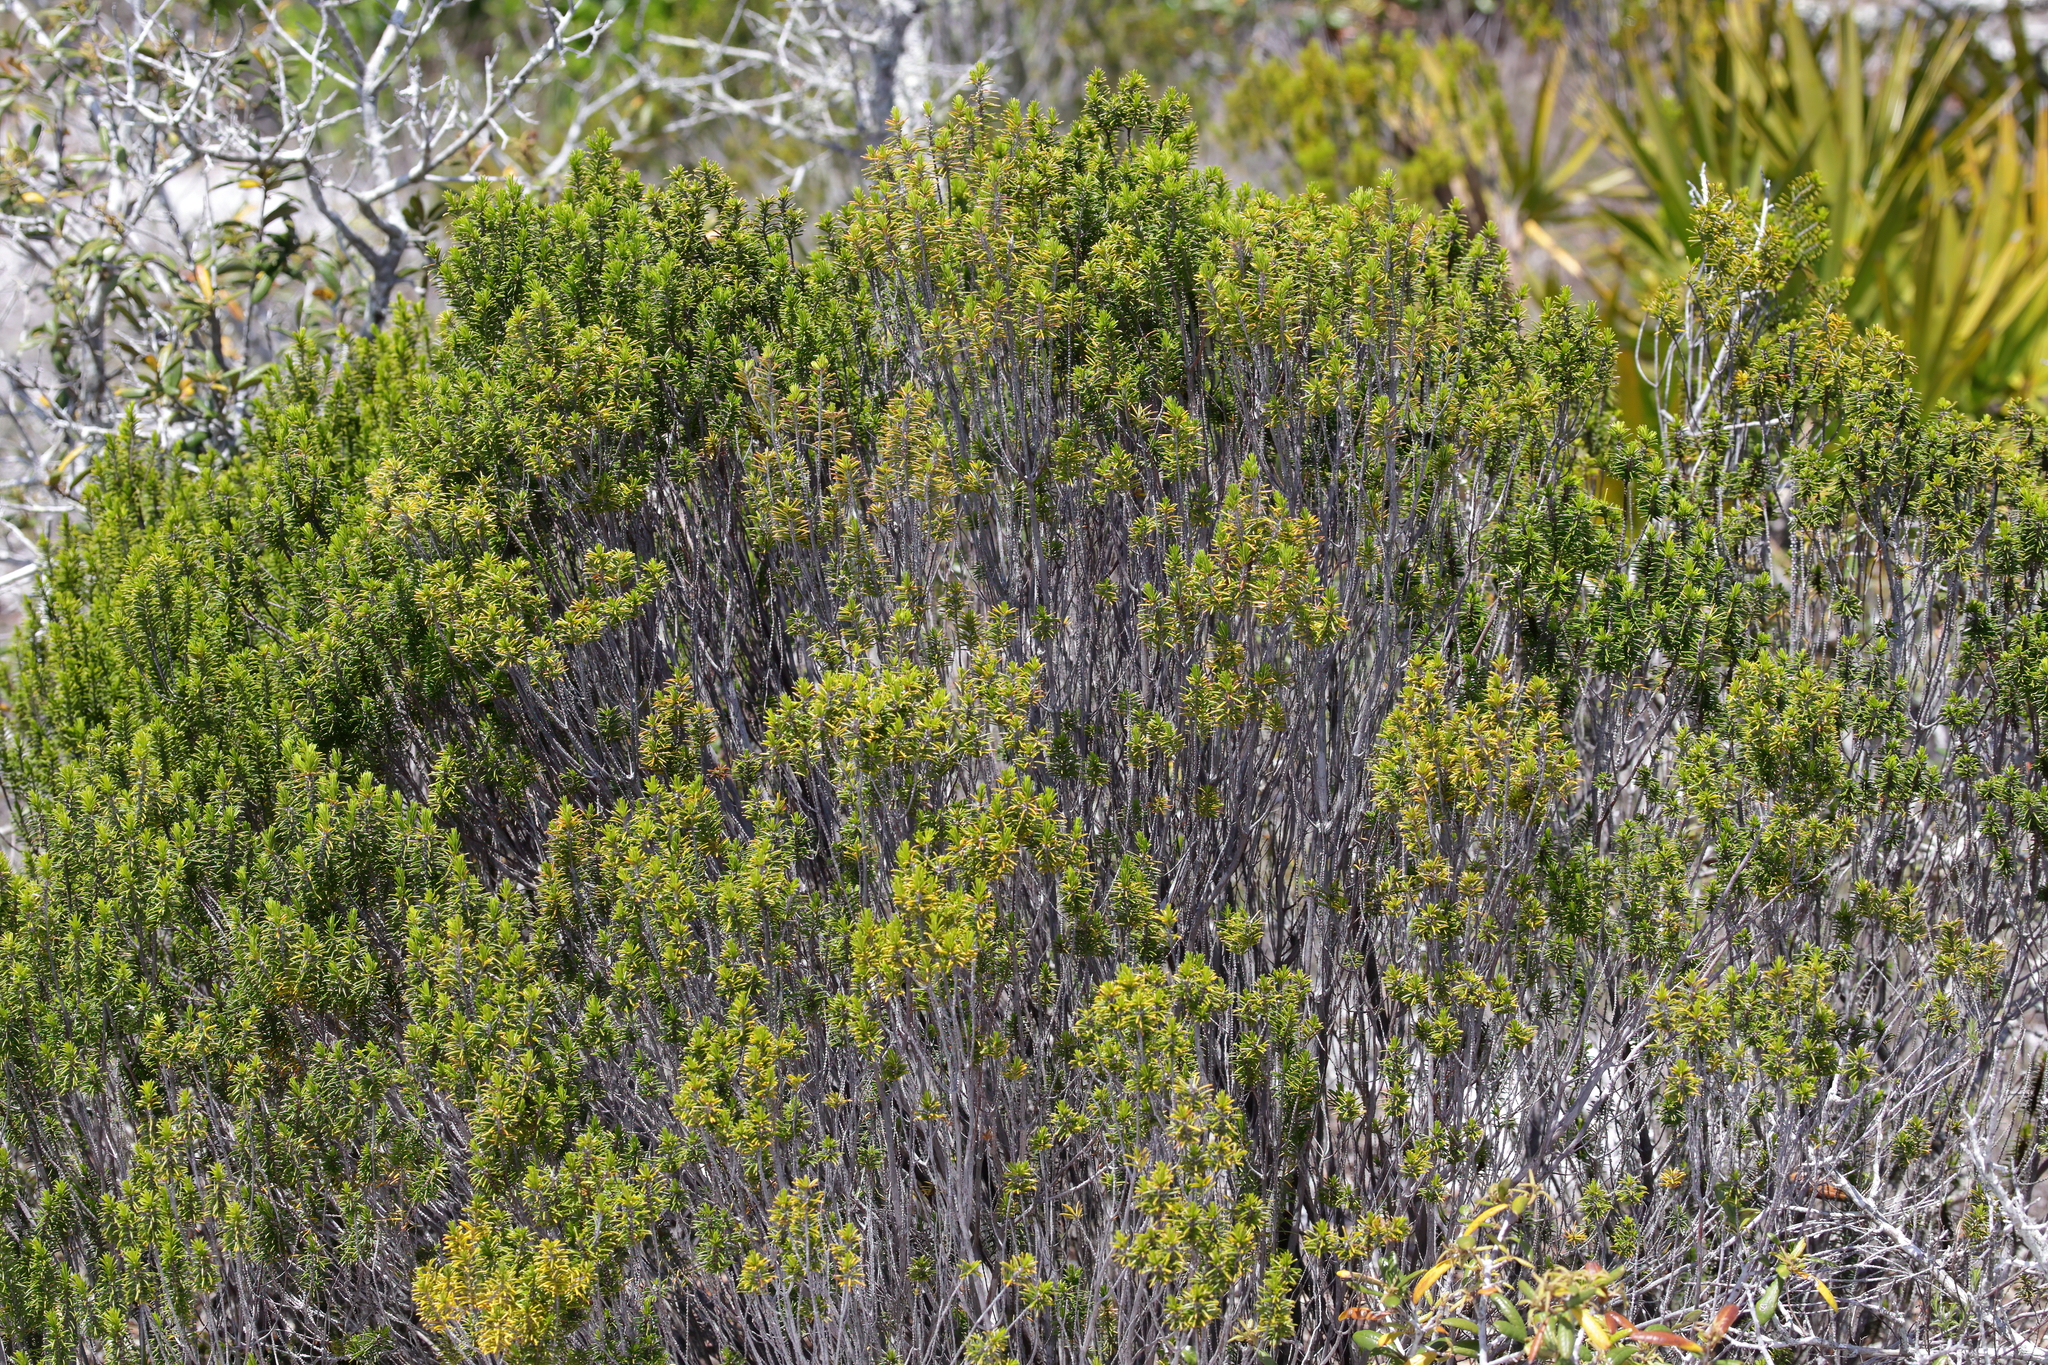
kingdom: Plantae
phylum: Tracheophyta
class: Magnoliopsida
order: Ericales
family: Ericaceae
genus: Ceratiola
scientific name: Ceratiola ericoides
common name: Sandhill-rosemary
